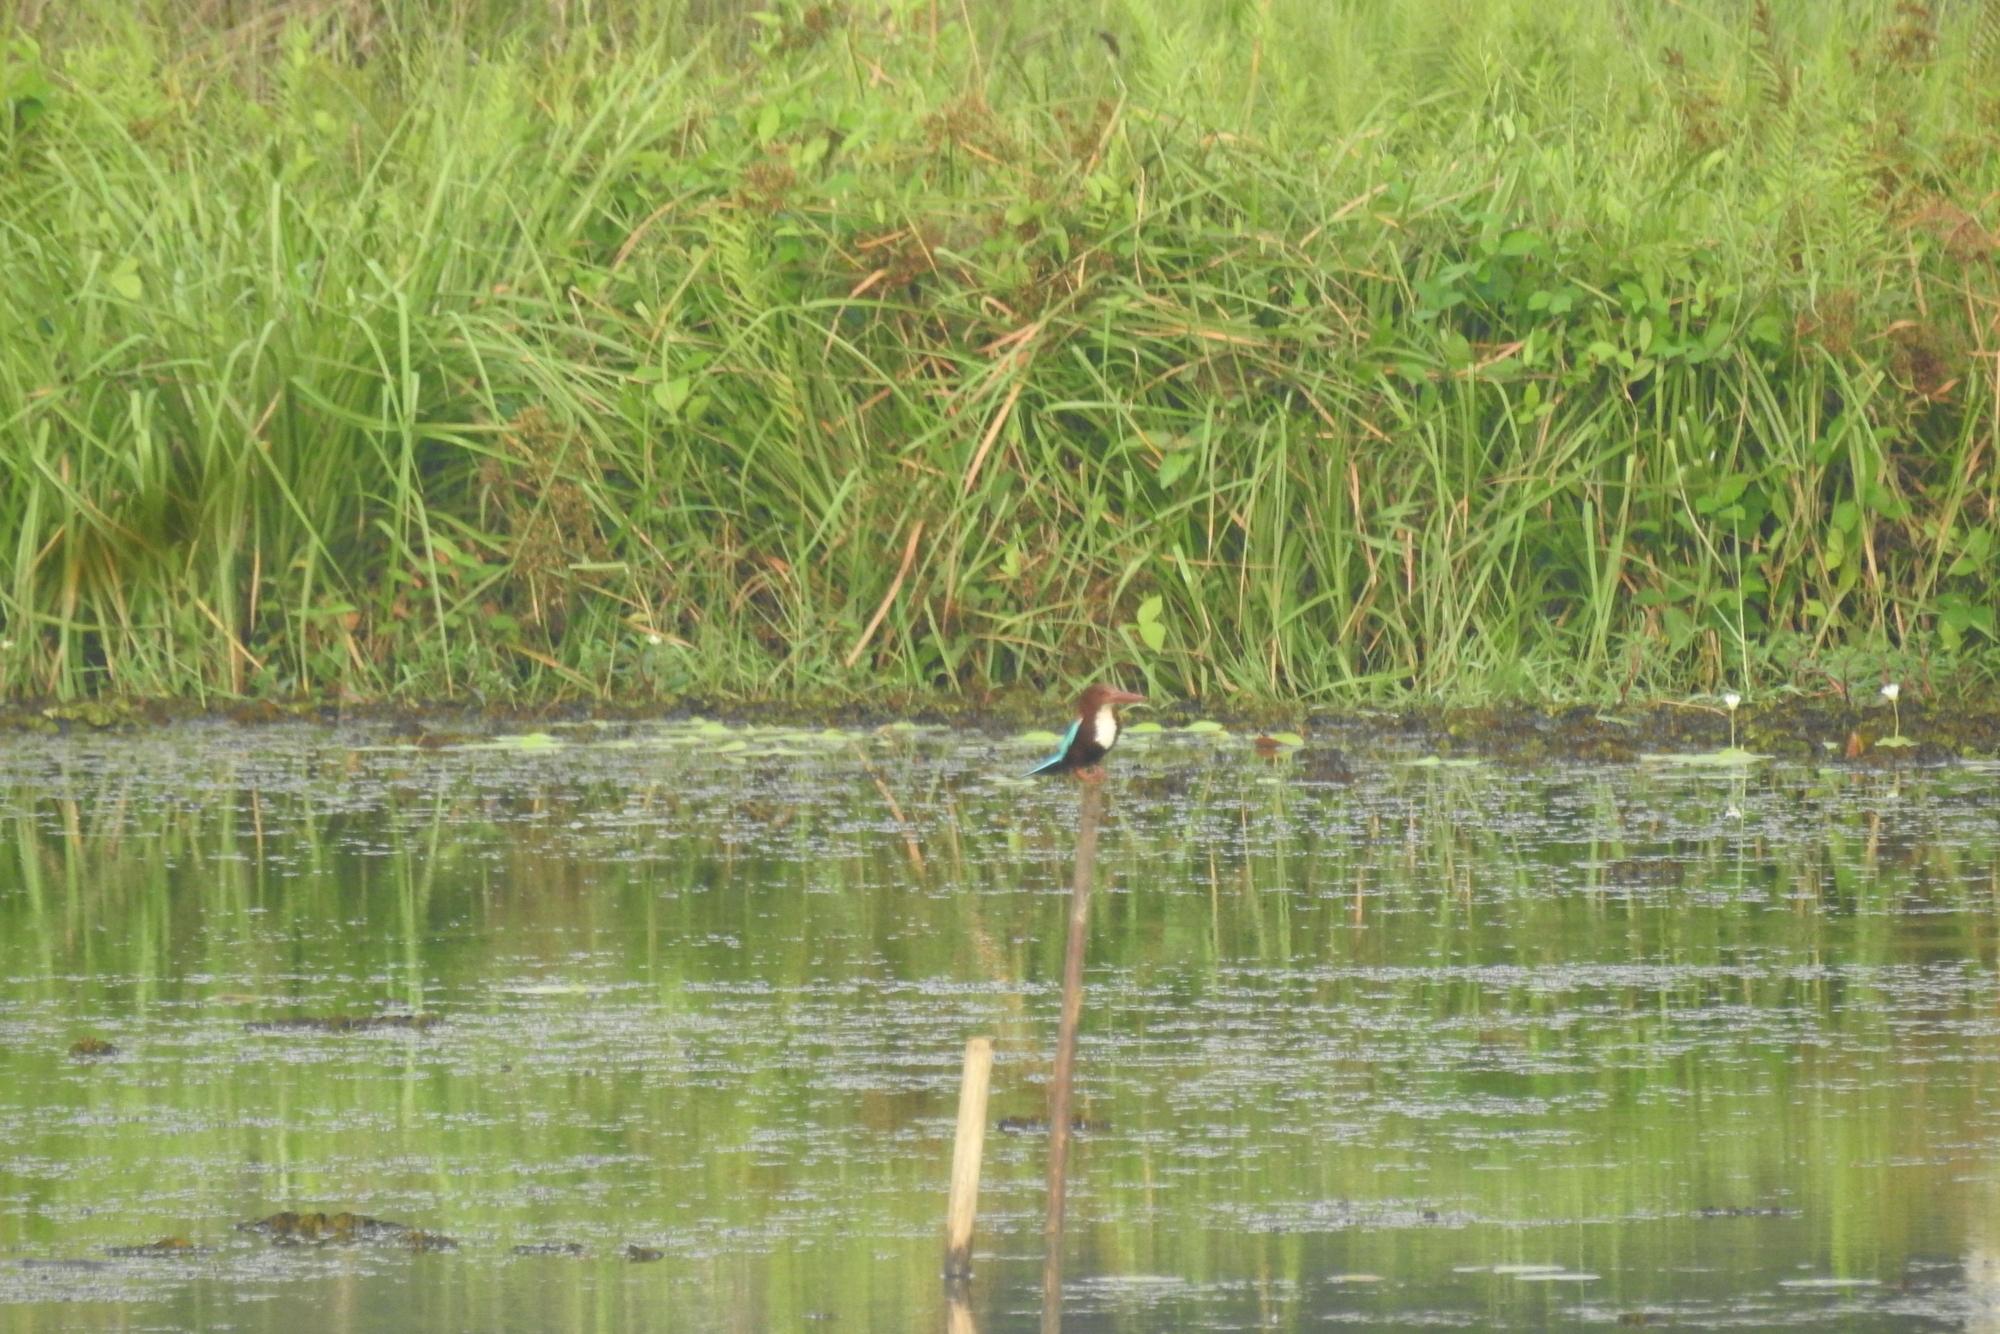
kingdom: Animalia
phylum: Chordata
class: Aves
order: Coraciiformes
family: Alcedinidae
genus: Halcyon
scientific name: Halcyon smyrnensis
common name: White-throated kingfisher
